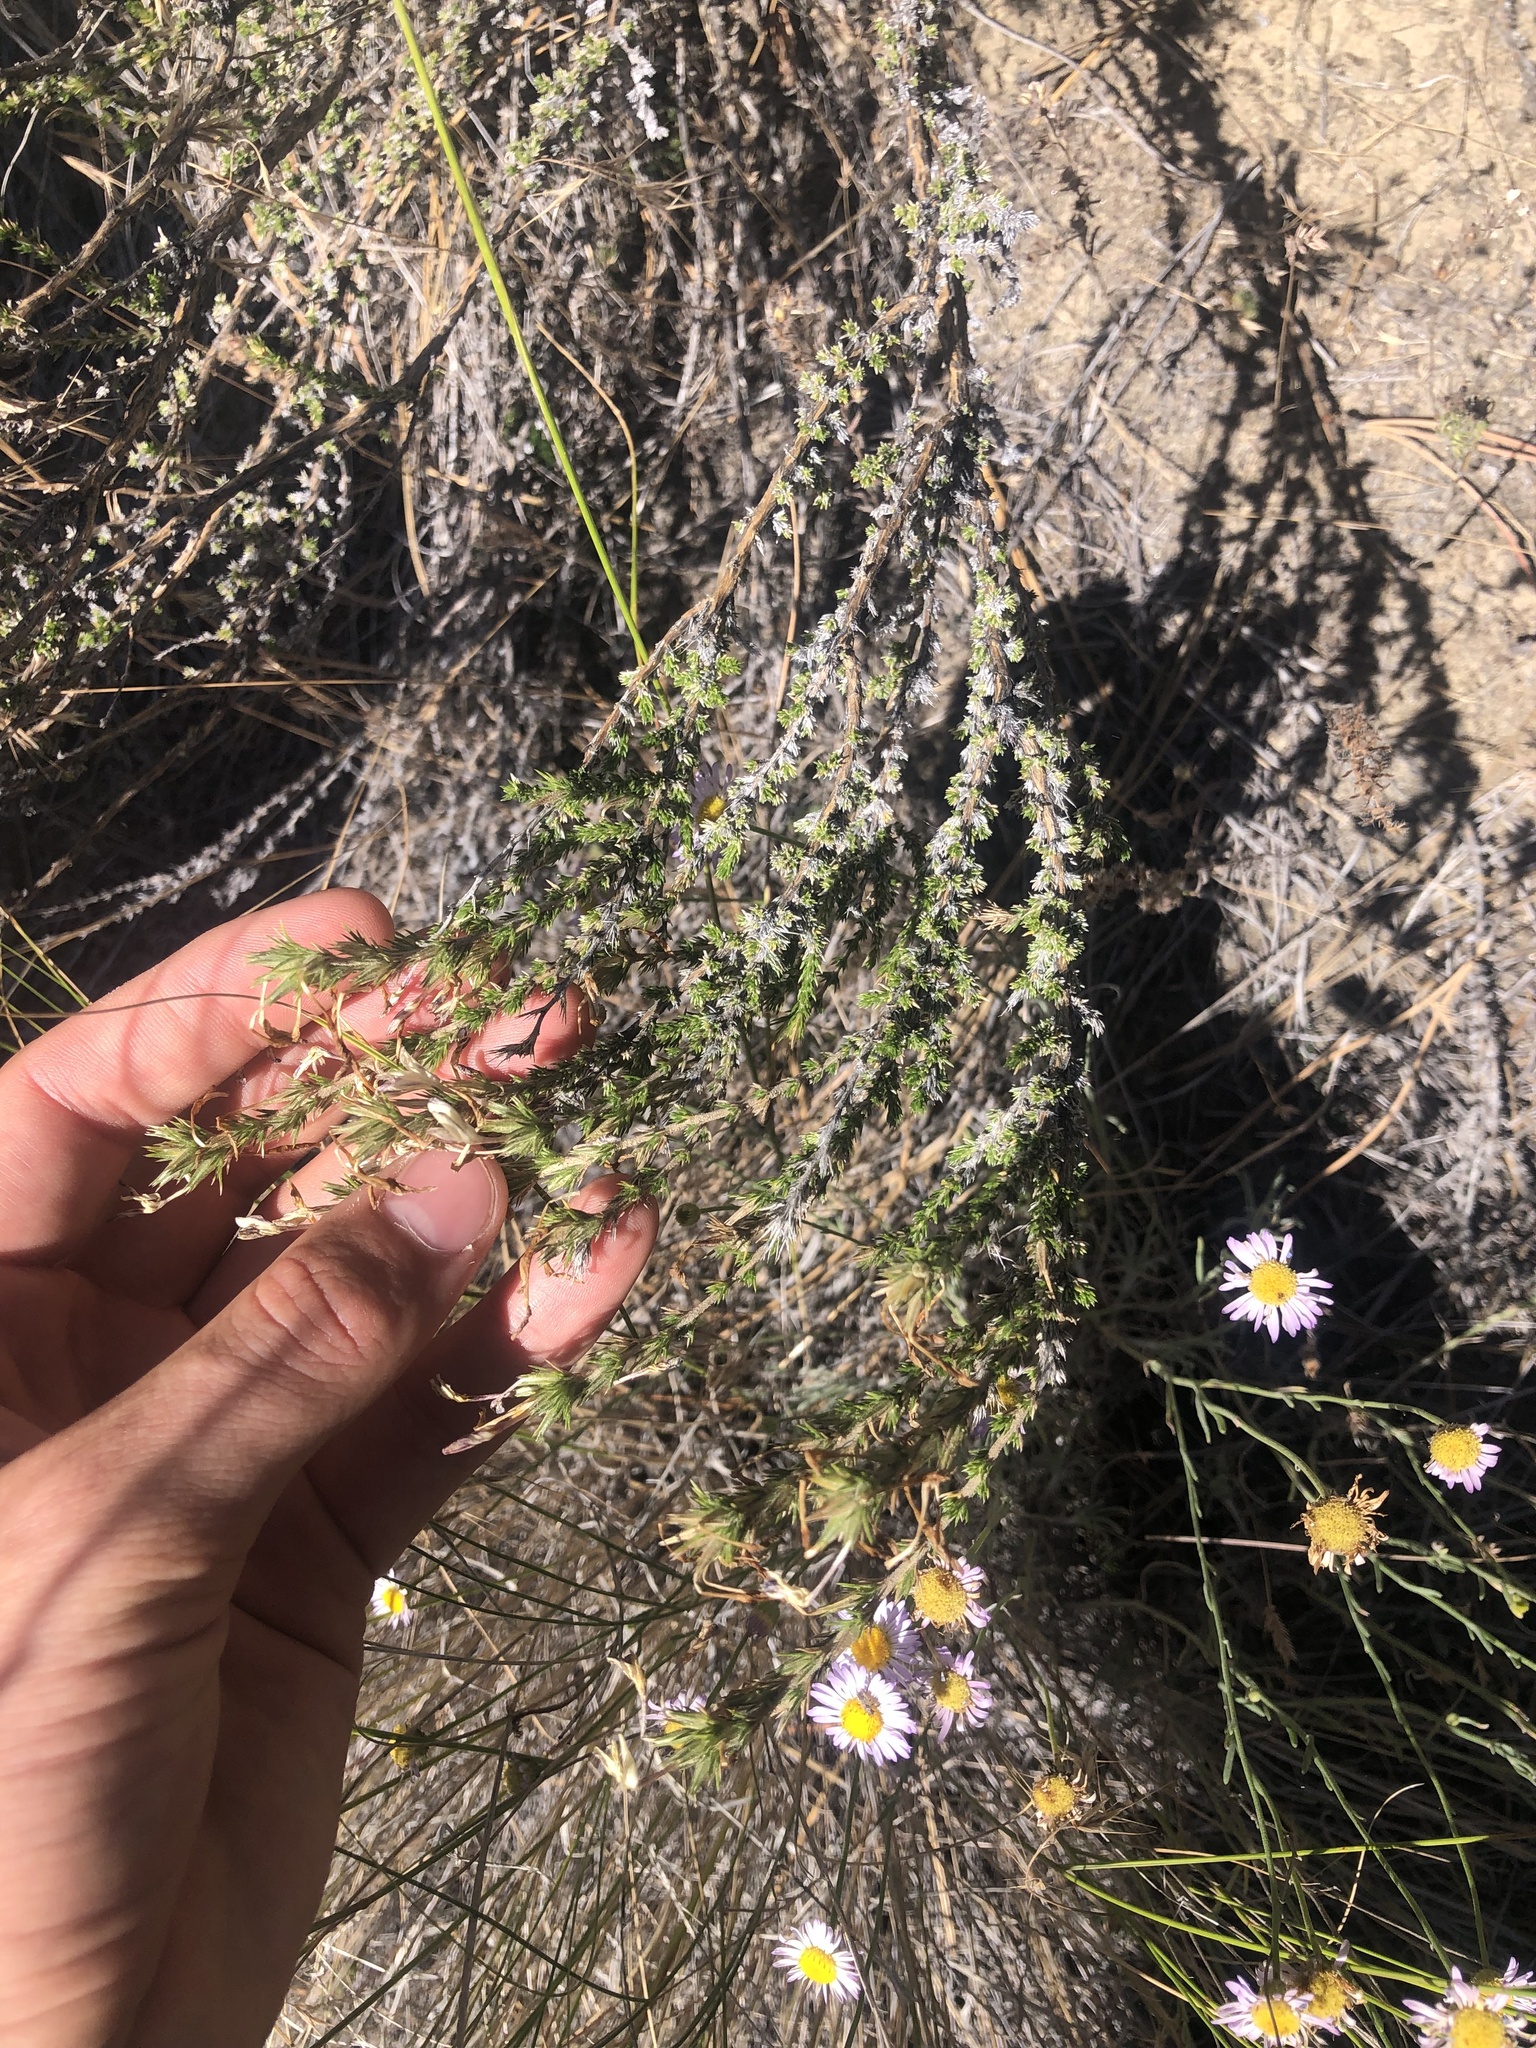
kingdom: Plantae
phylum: Tracheophyta
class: Magnoliopsida
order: Ericales
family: Polemoniaceae
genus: Linanthus
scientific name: Linanthus pungens
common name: Granite prickly phlox
